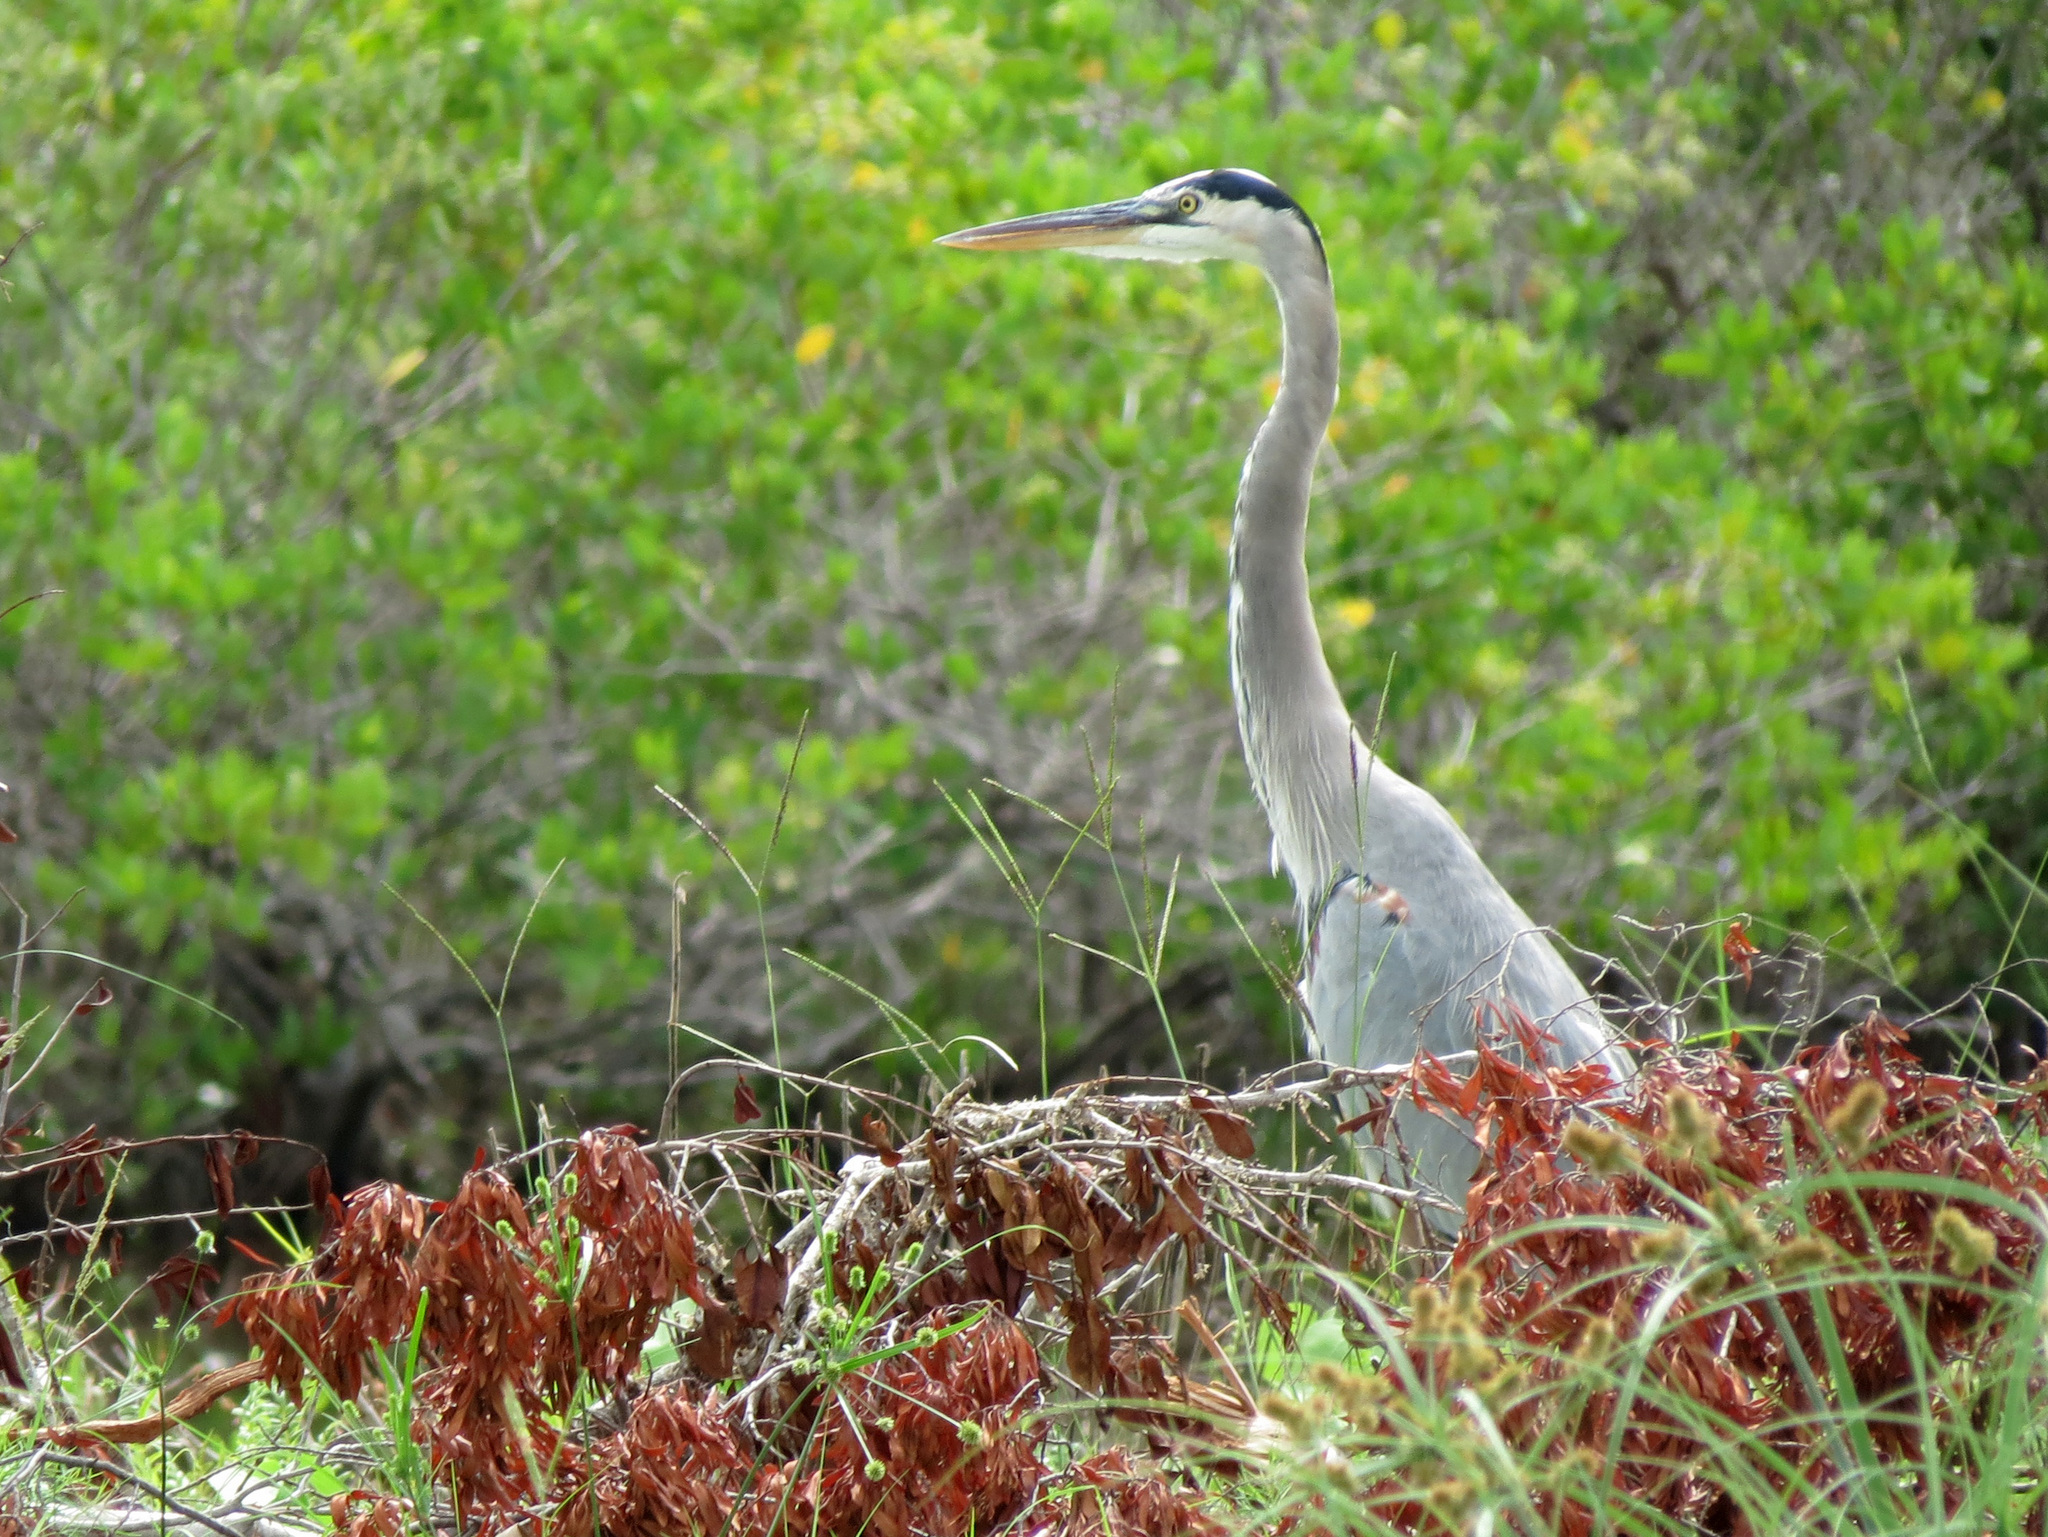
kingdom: Animalia
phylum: Chordata
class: Aves
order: Pelecaniformes
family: Ardeidae
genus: Ardea
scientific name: Ardea herodias
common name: Great blue heron
